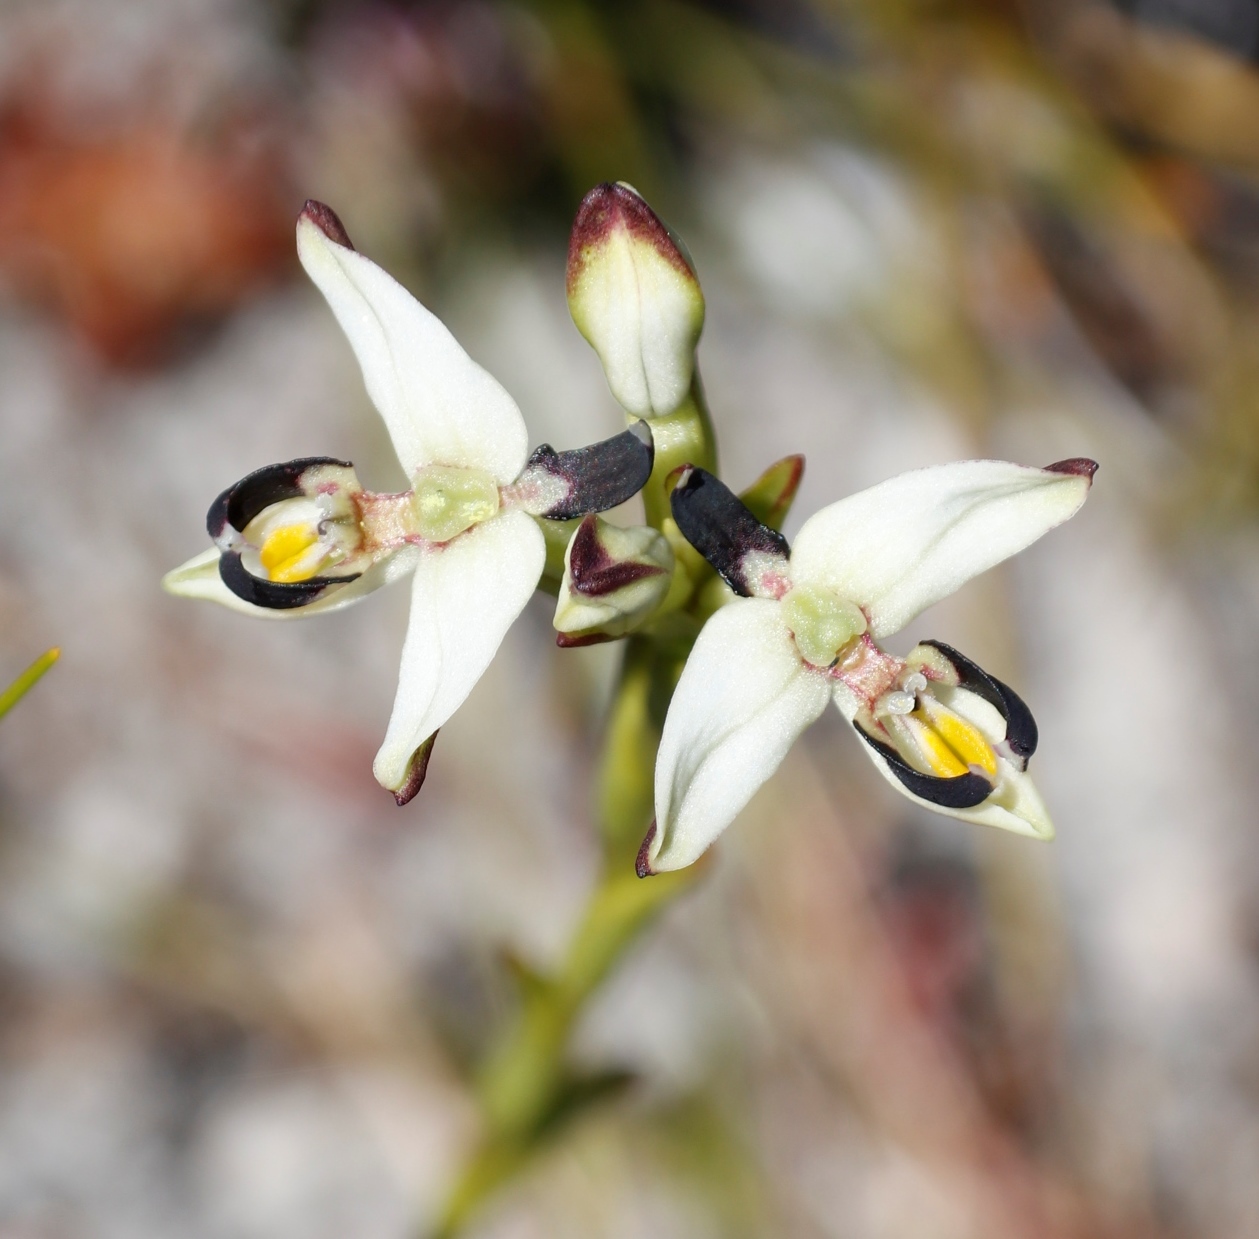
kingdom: Plantae
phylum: Tracheophyta
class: Liliopsida
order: Asparagales
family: Orchidaceae
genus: Disa
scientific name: Disa bivalvata
